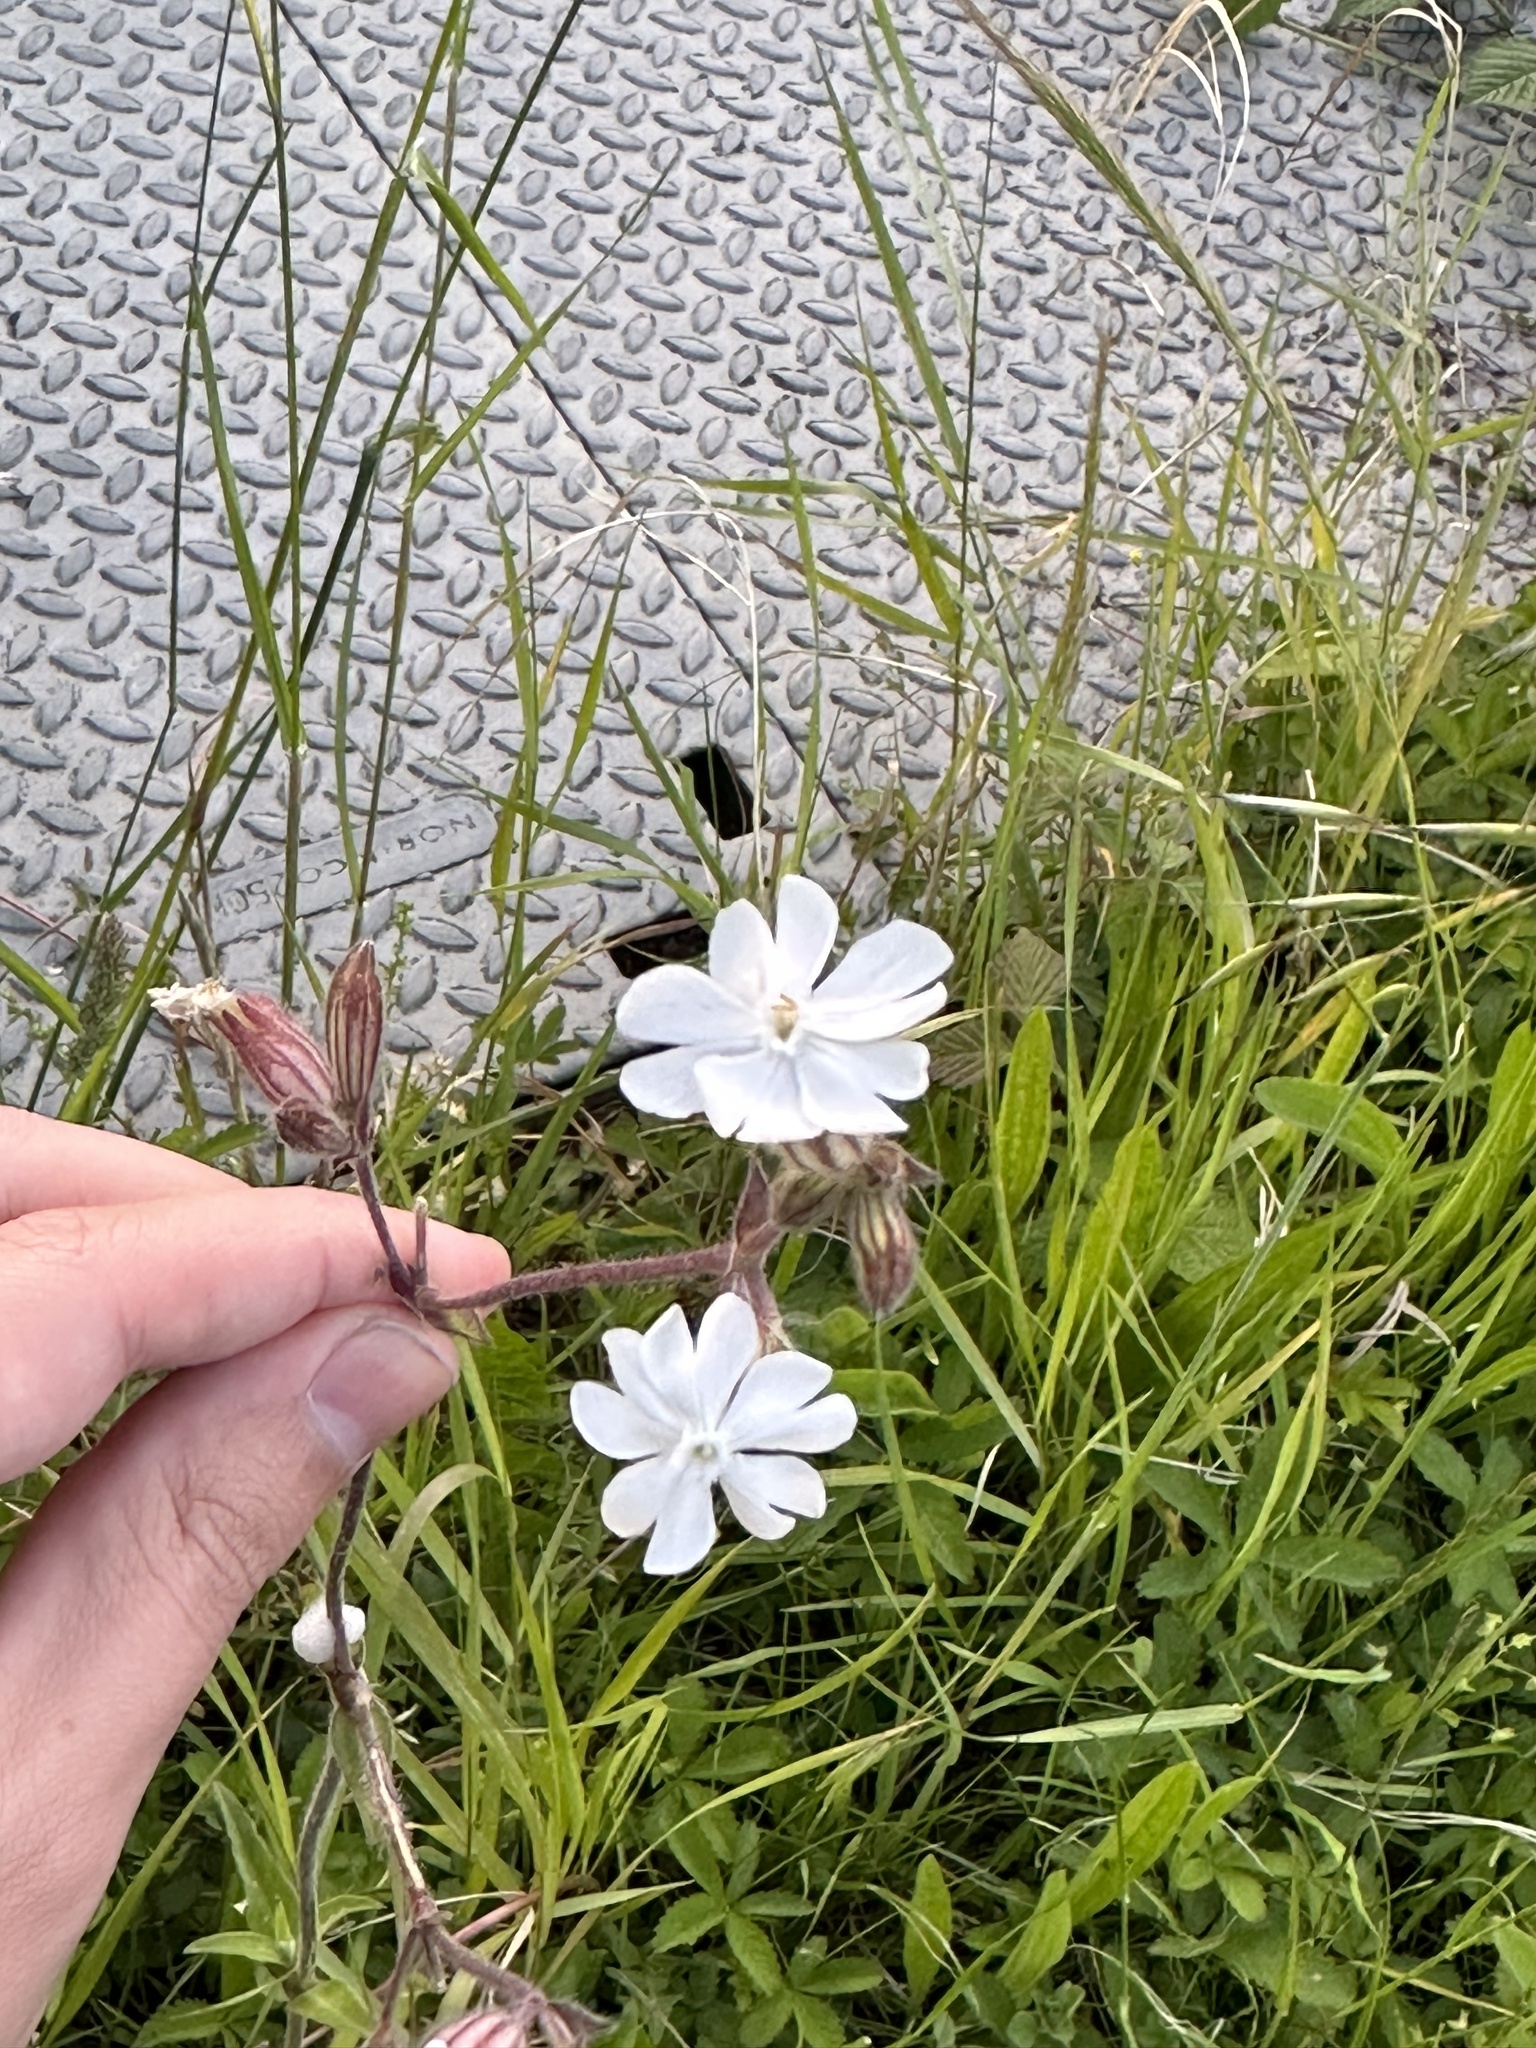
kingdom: Plantae
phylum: Tracheophyta
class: Magnoliopsida
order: Caryophyllales
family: Caryophyllaceae
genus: Silene
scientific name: Silene latifolia
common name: White campion
